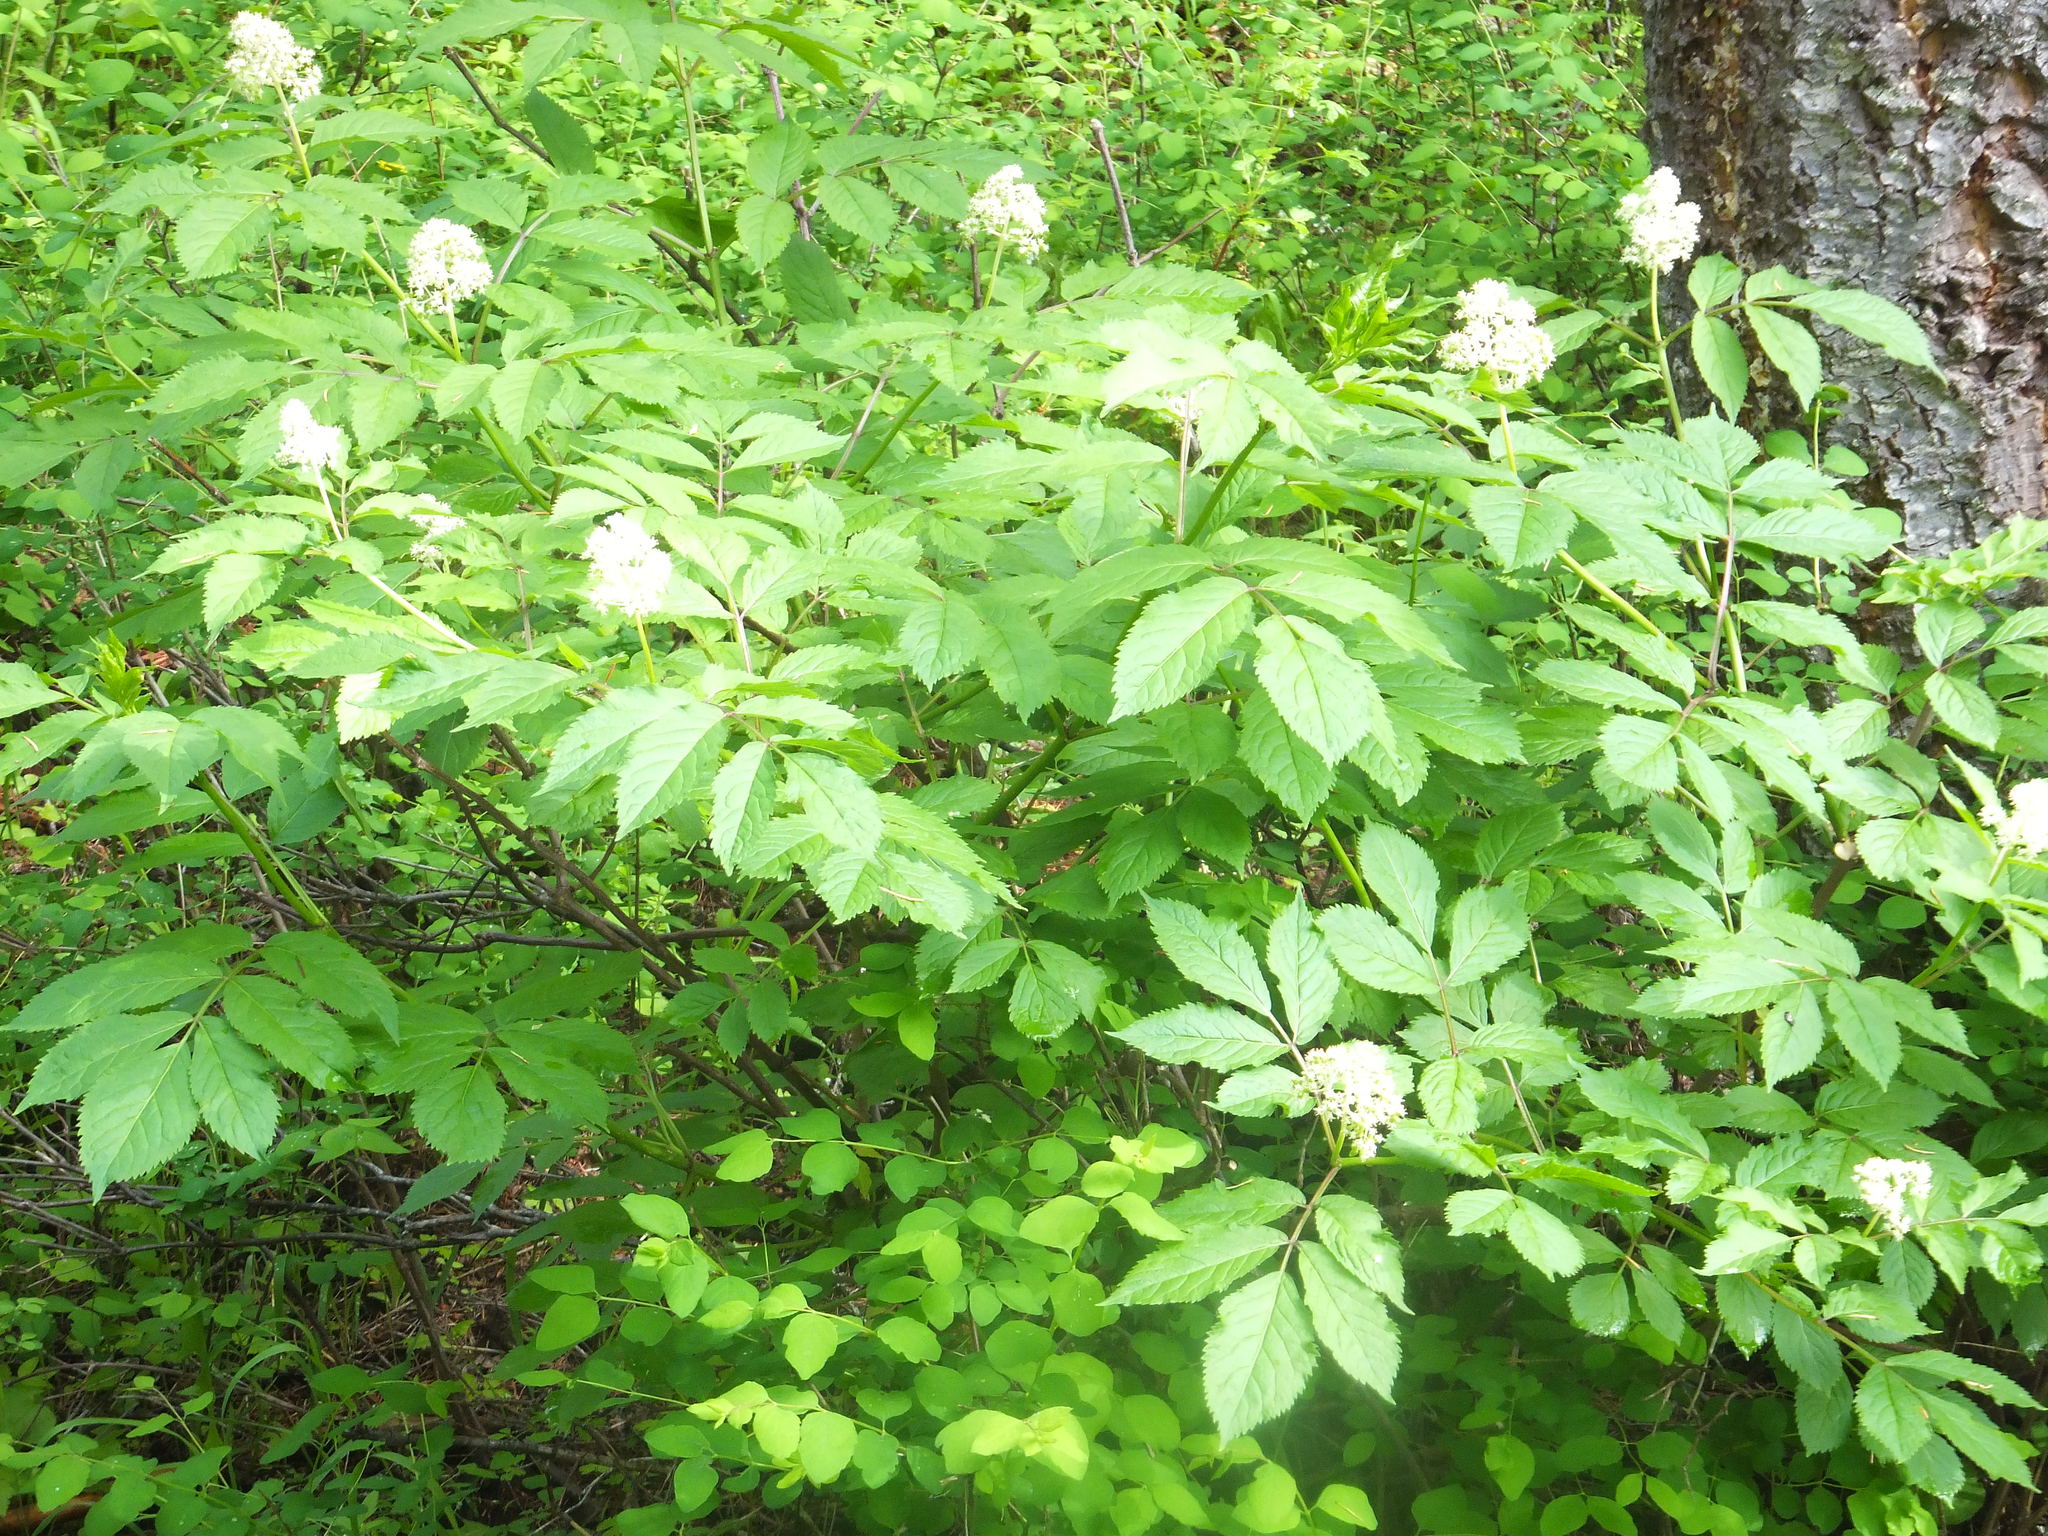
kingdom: Plantae
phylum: Tracheophyta
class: Magnoliopsida
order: Dipsacales
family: Viburnaceae
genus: Sambucus
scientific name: Sambucus racemosa
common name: Red-berried elder
